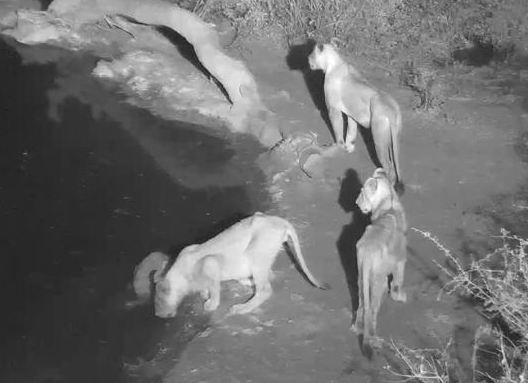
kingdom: Animalia
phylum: Chordata
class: Mammalia
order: Carnivora
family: Felidae
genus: Panthera
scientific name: Panthera leo
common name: Lion
